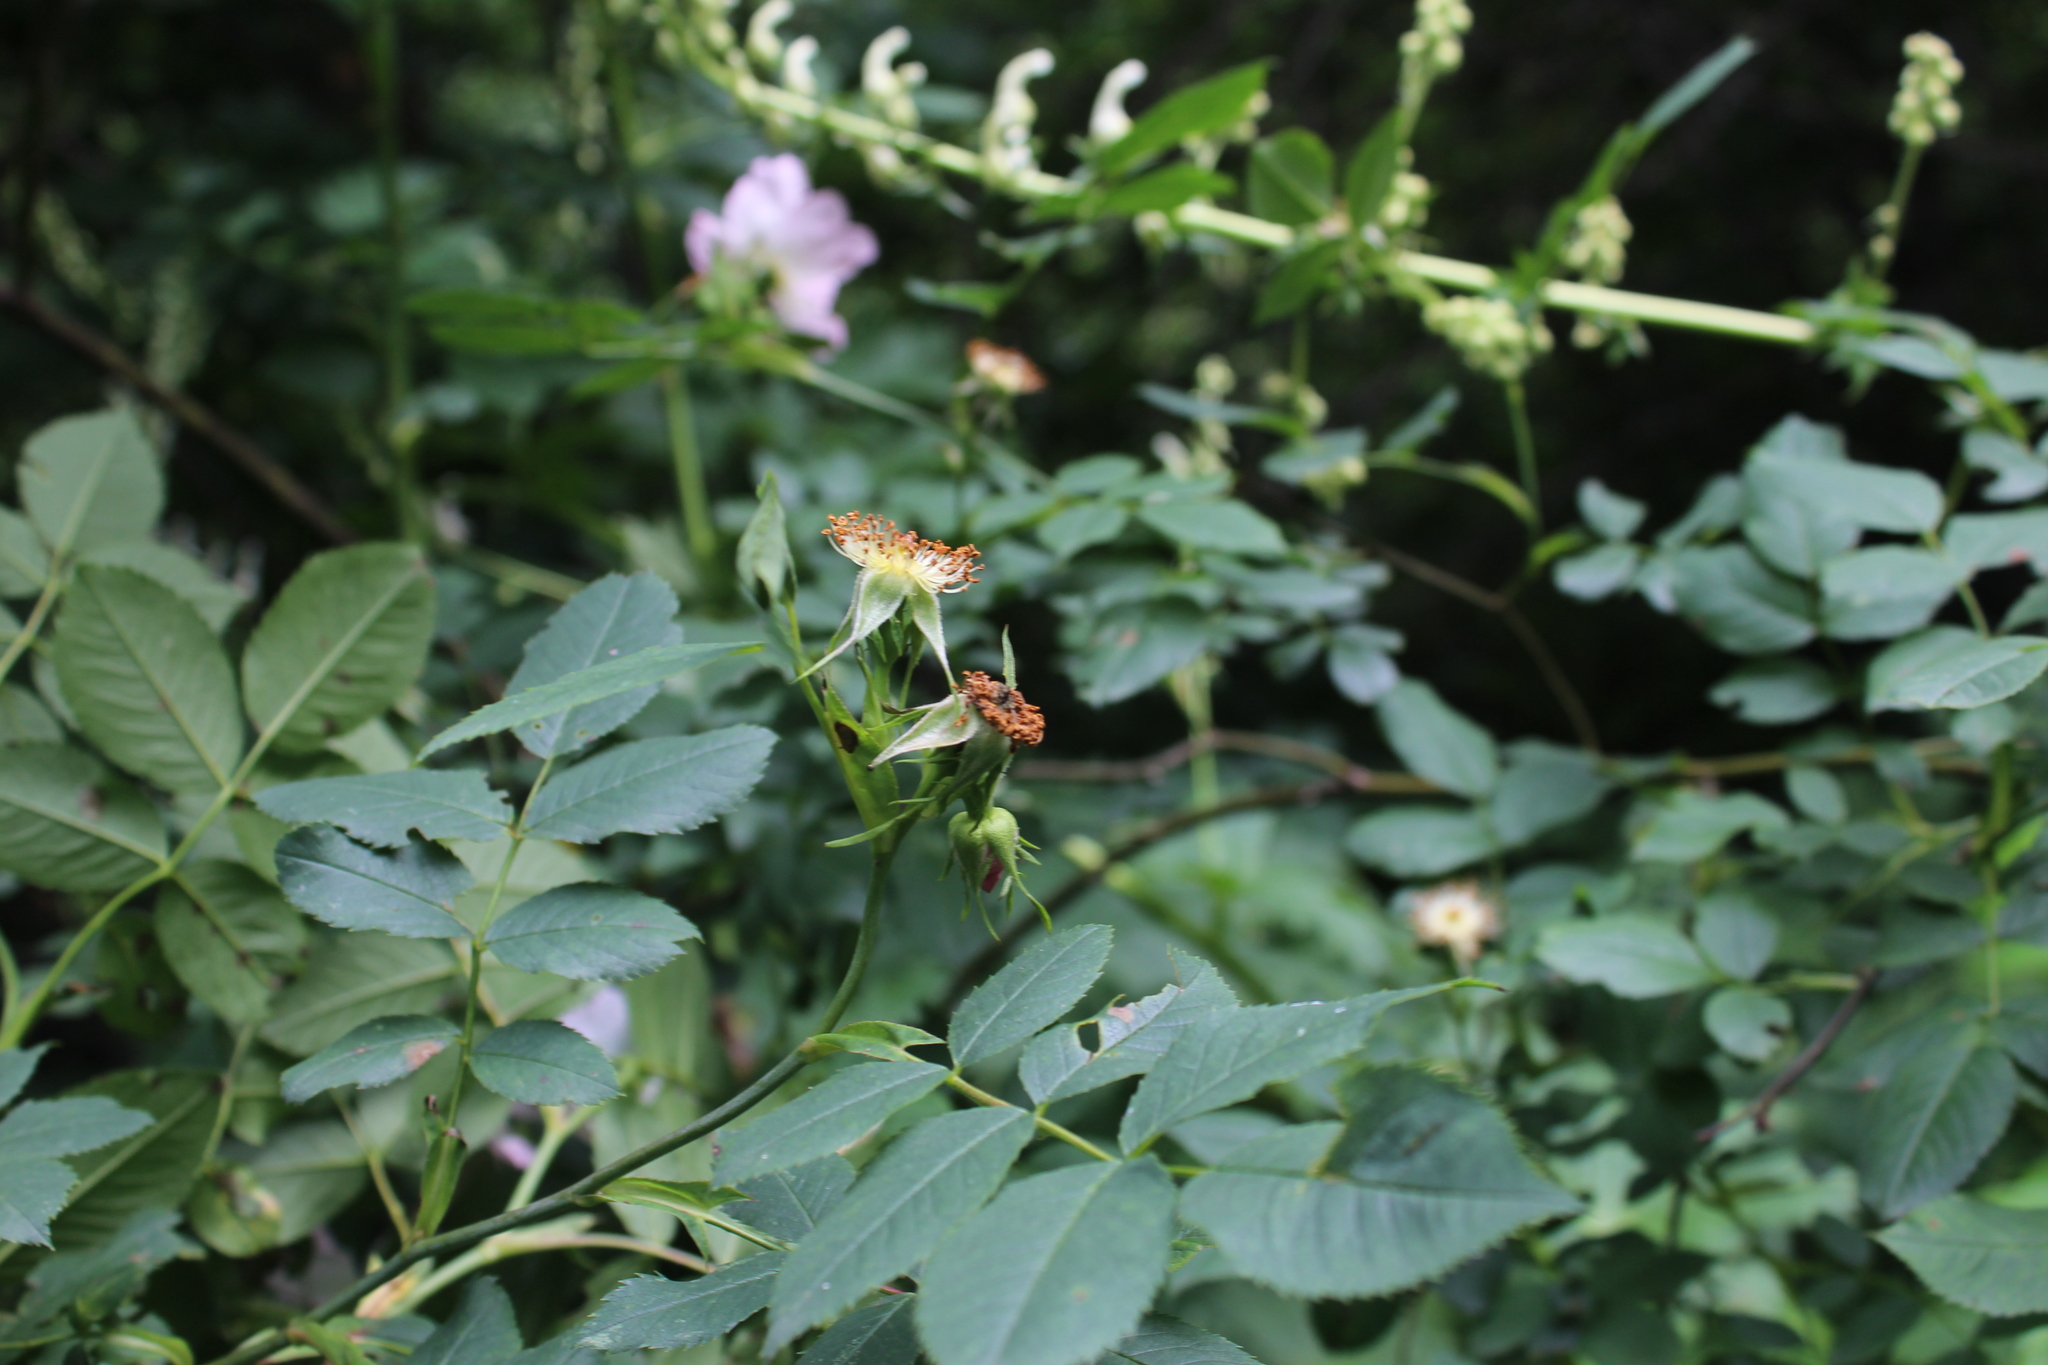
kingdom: Plantae
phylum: Tracheophyta
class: Magnoliopsida
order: Rosales
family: Rosaceae
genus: Rosa
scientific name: Rosa canina
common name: Dog rose
